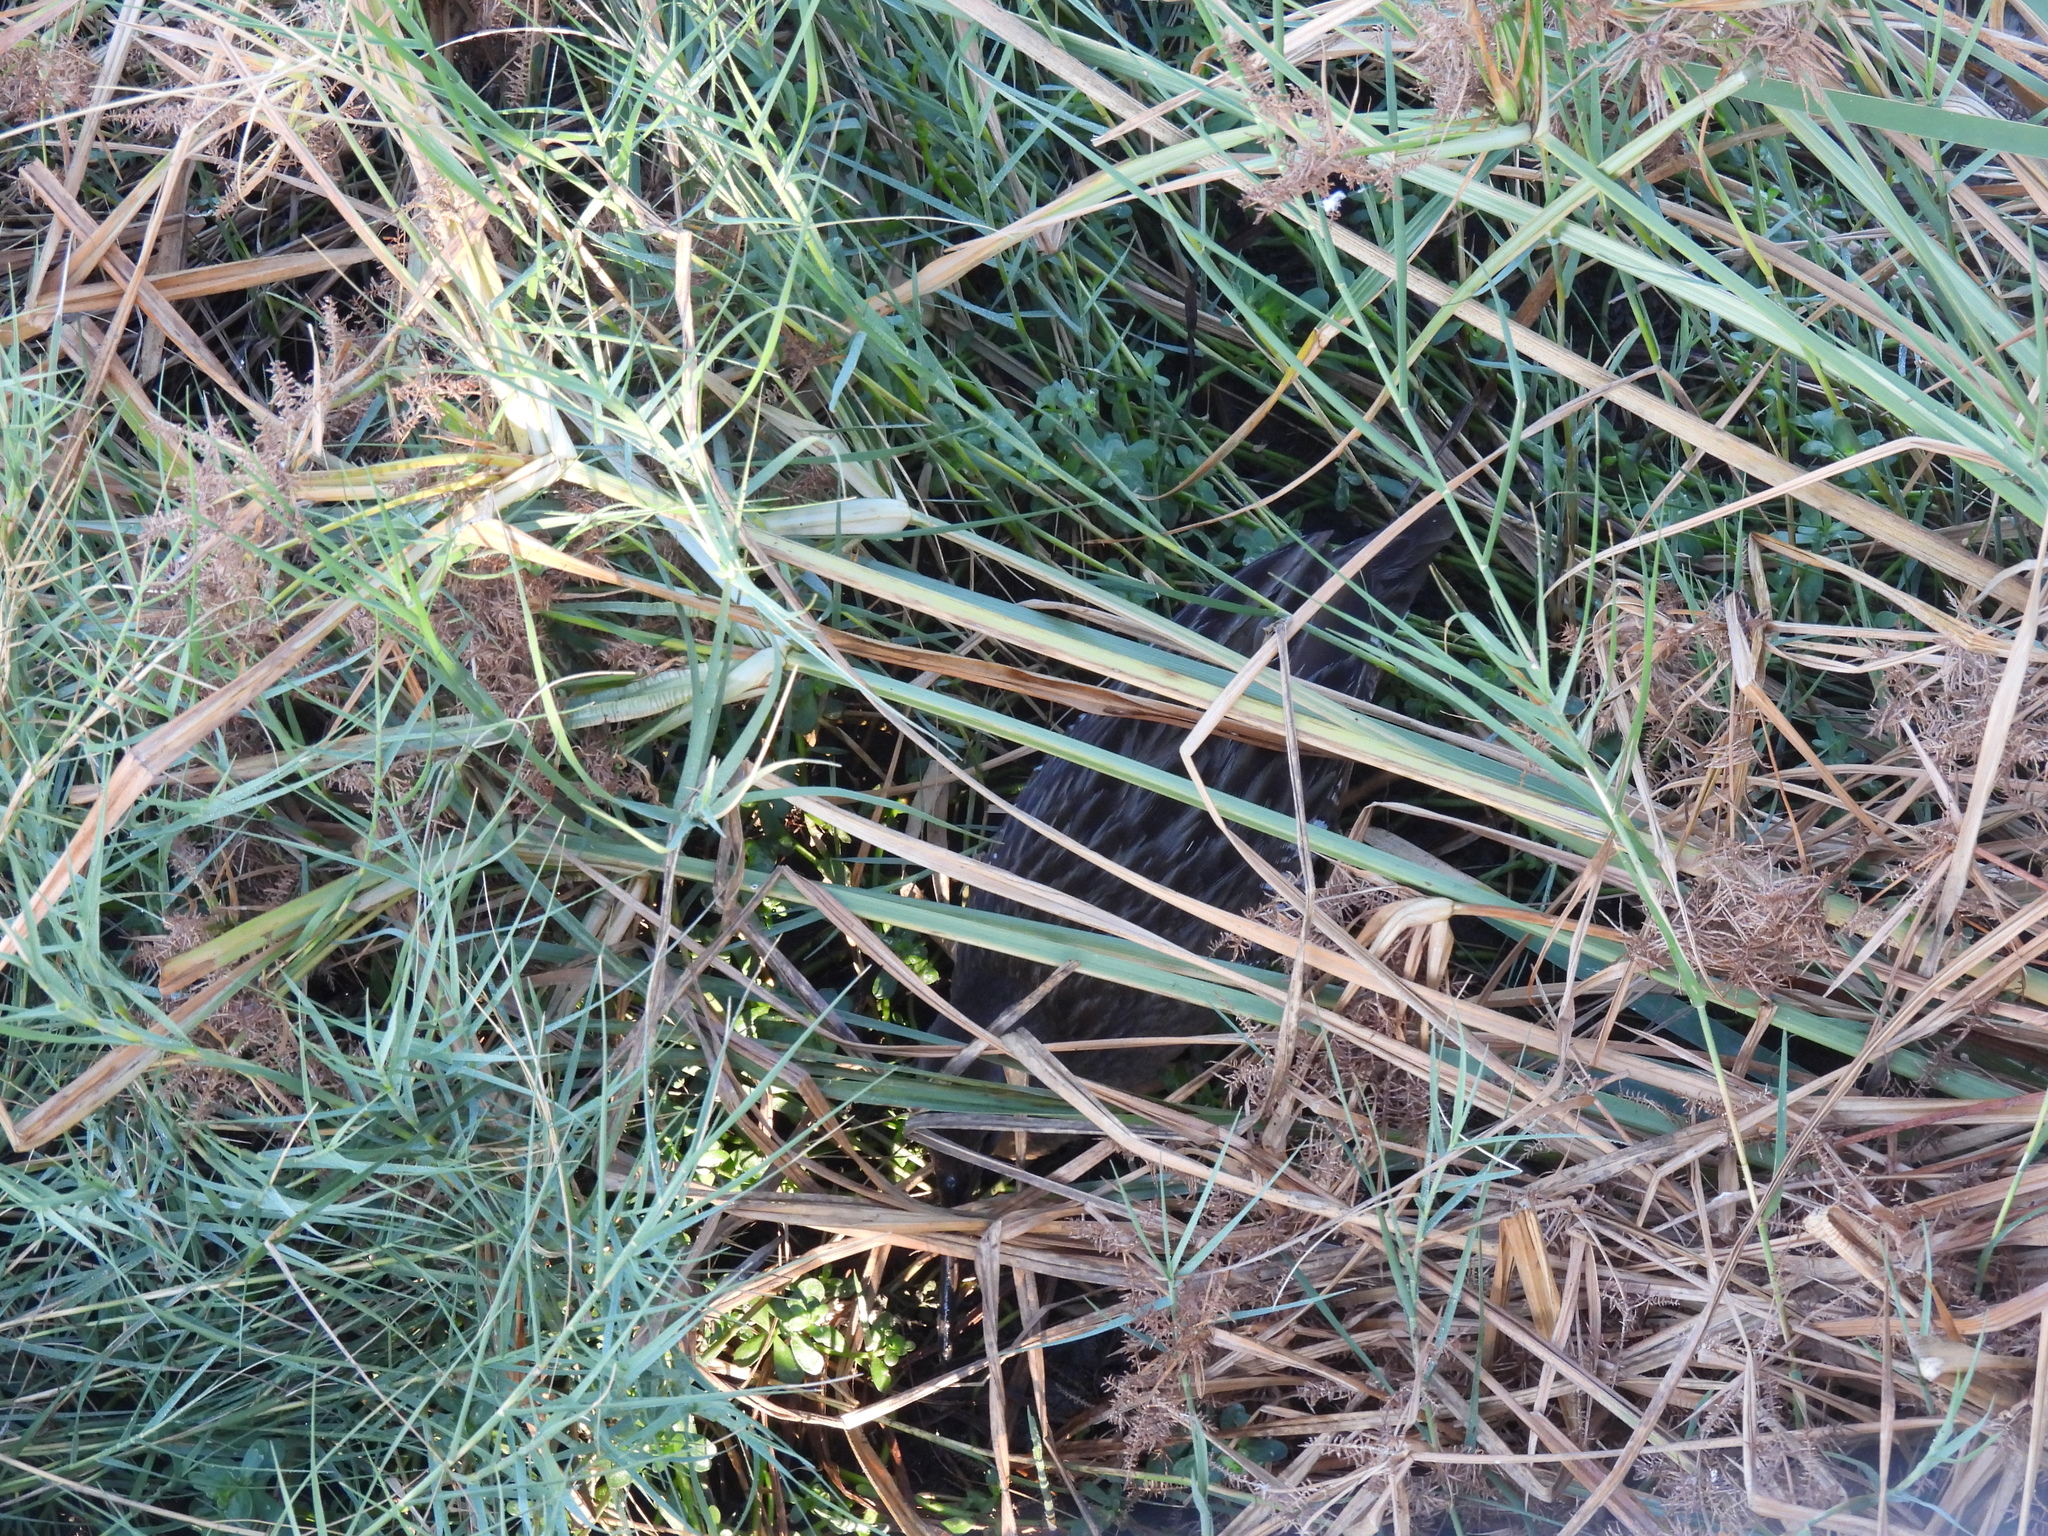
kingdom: Animalia
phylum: Chordata
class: Aves
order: Gruiformes
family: Rallidae
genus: Rallus
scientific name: Rallus crepitans
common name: Clapper rail
